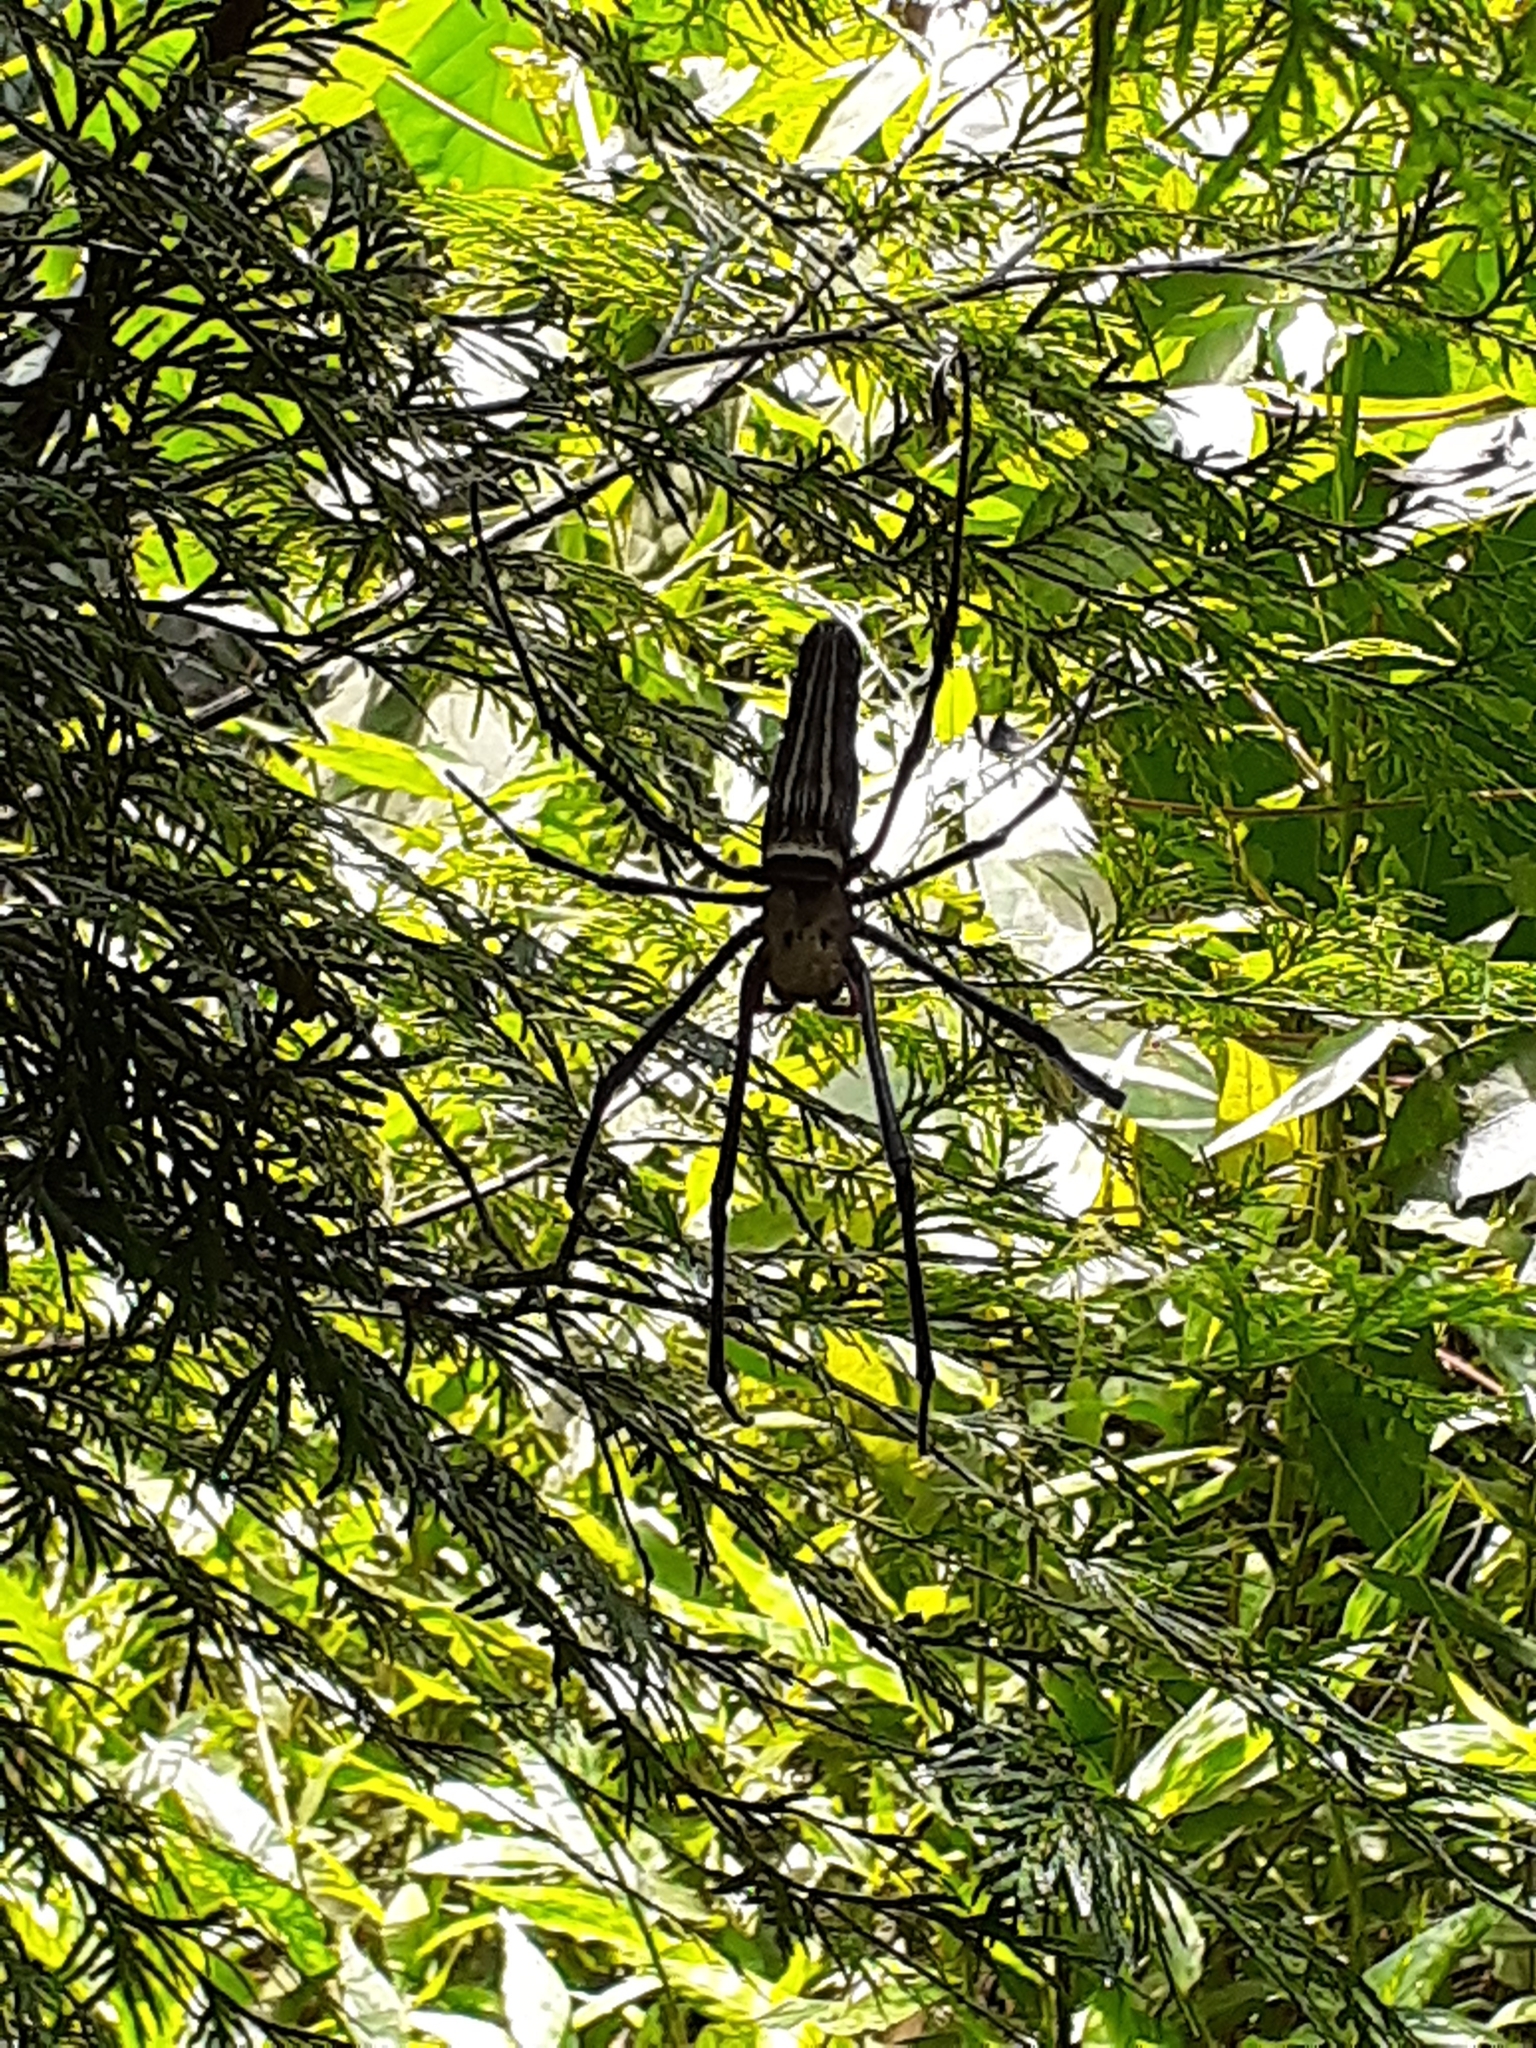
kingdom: Animalia
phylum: Arthropoda
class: Arachnida
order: Araneae
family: Araneidae
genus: Nephila
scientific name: Nephila pilipes
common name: Giant golden orb weaver
